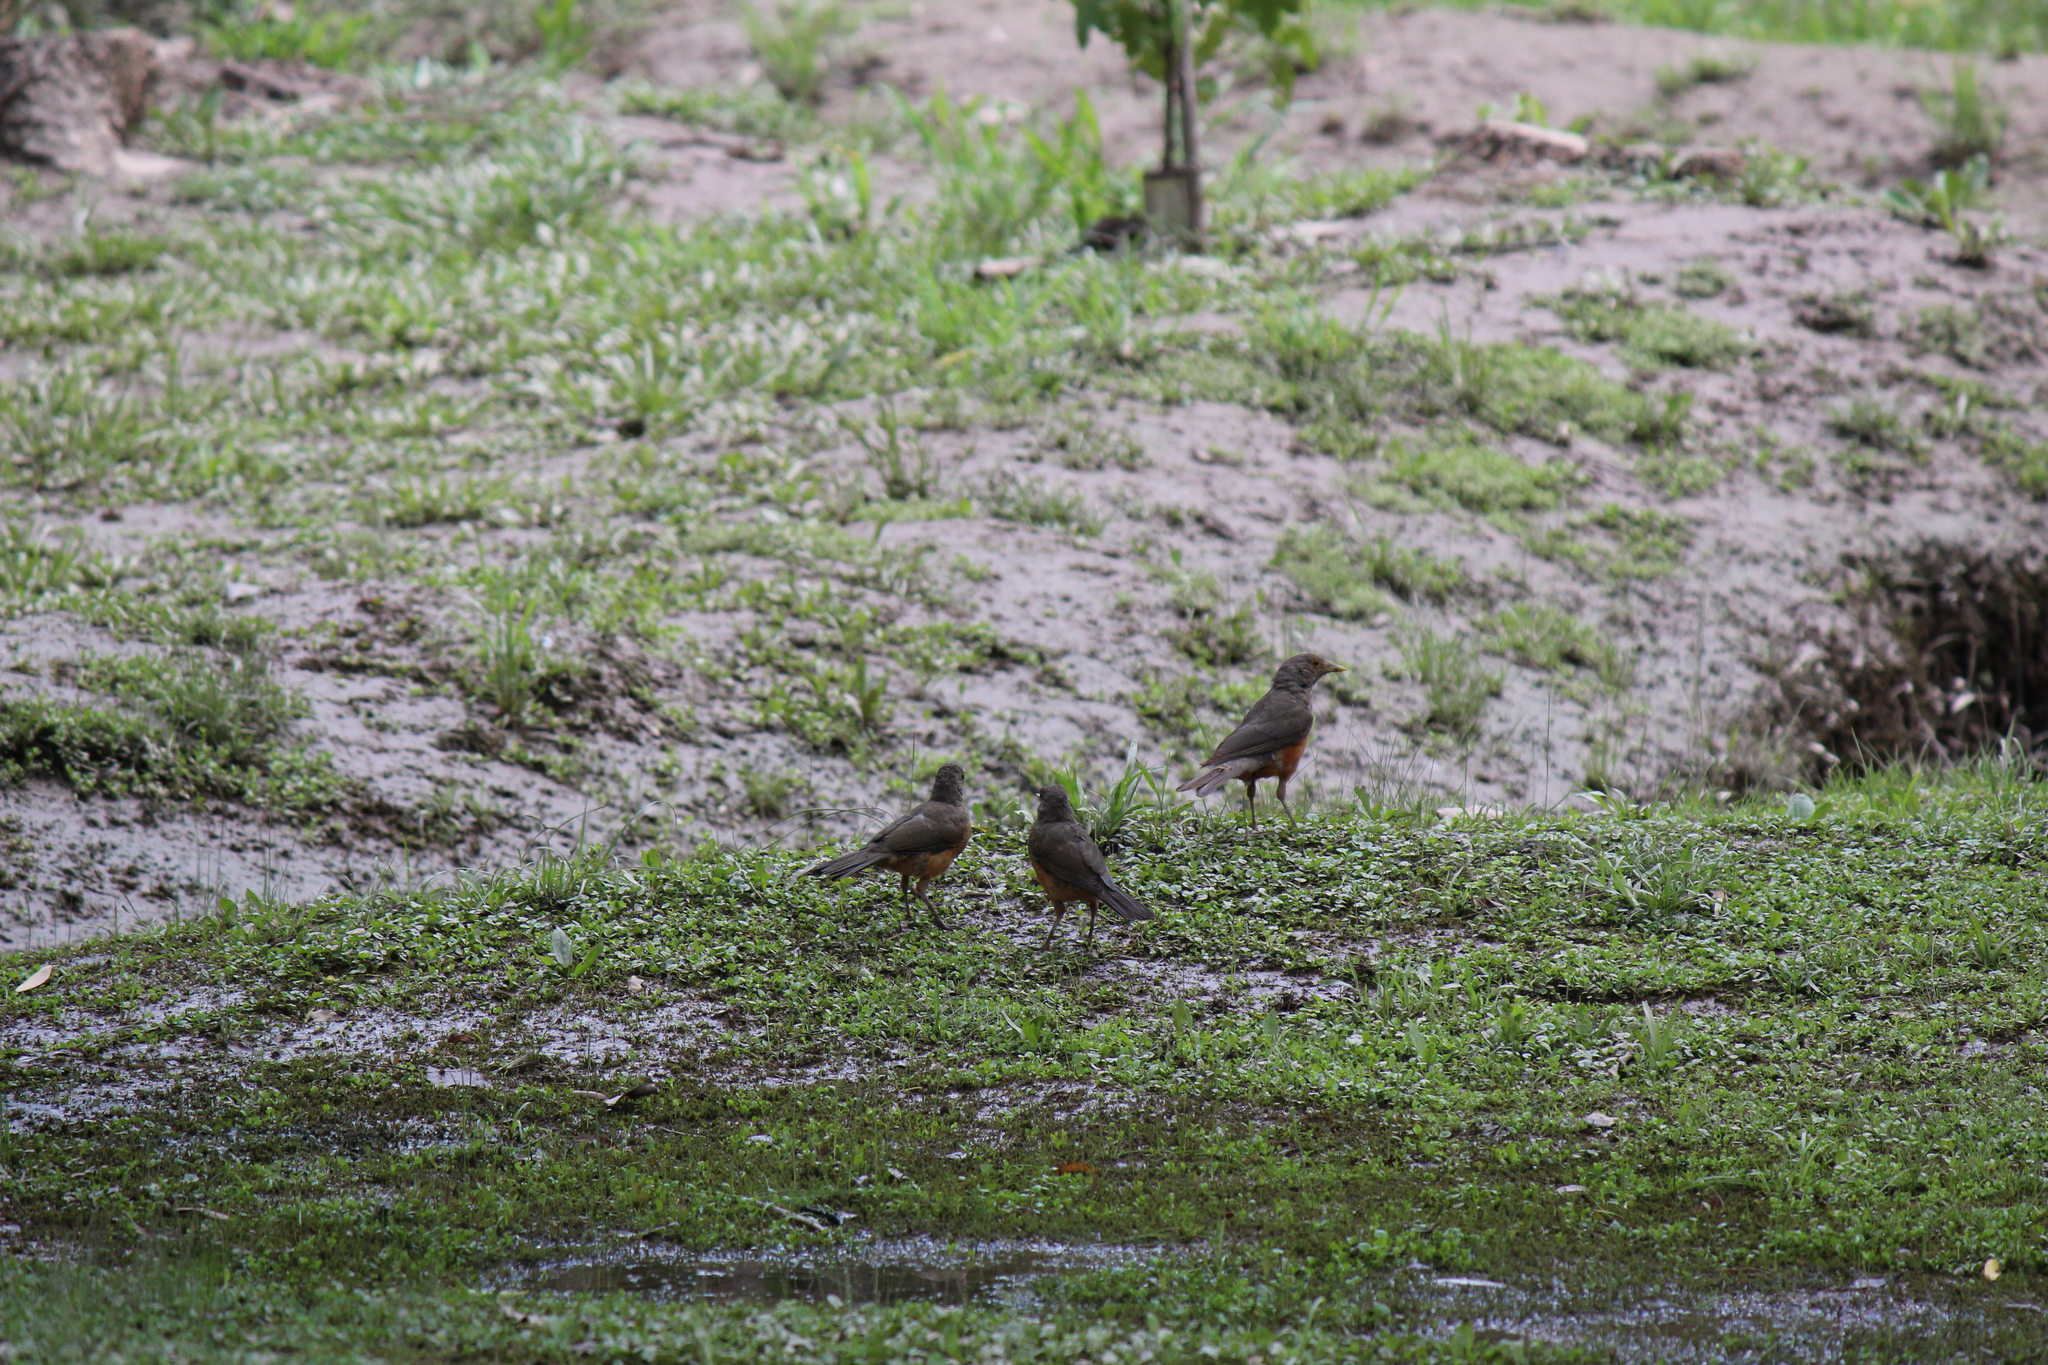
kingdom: Animalia
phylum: Chordata
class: Aves
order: Passeriformes
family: Turdidae
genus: Turdus
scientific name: Turdus rufiventris
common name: Rufous-bellied thrush
